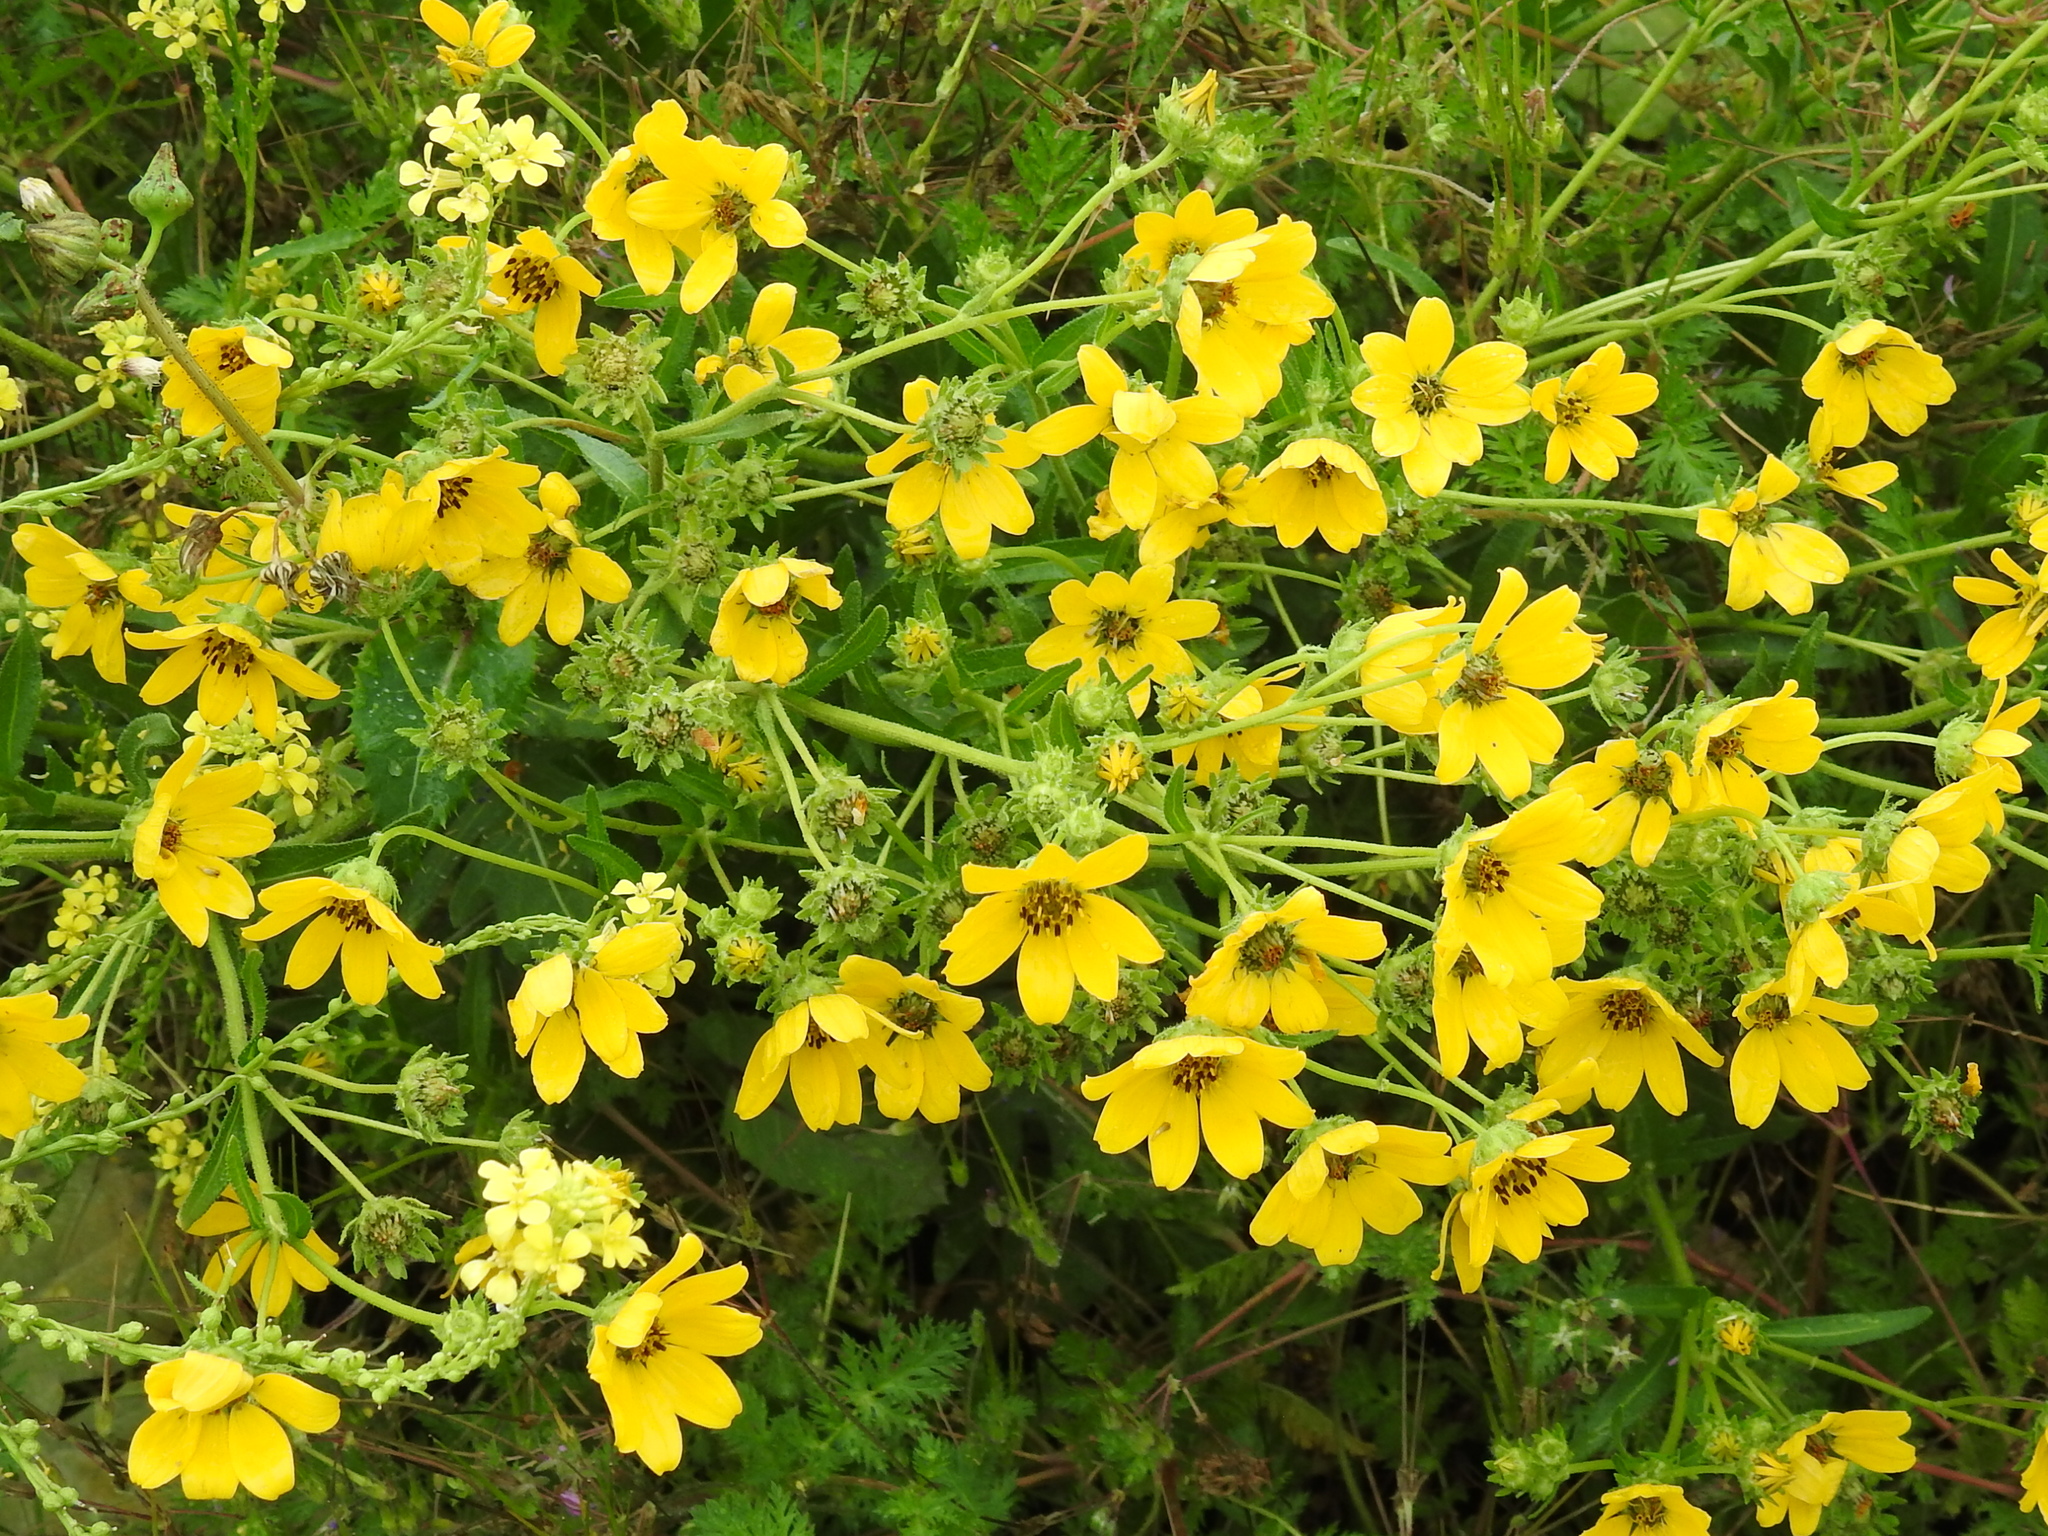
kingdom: Plantae
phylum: Tracheophyta
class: Magnoliopsida
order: Asterales
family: Asteraceae
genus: Engelmannia
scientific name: Engelmannia peristenia
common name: Engelmann's daisy
